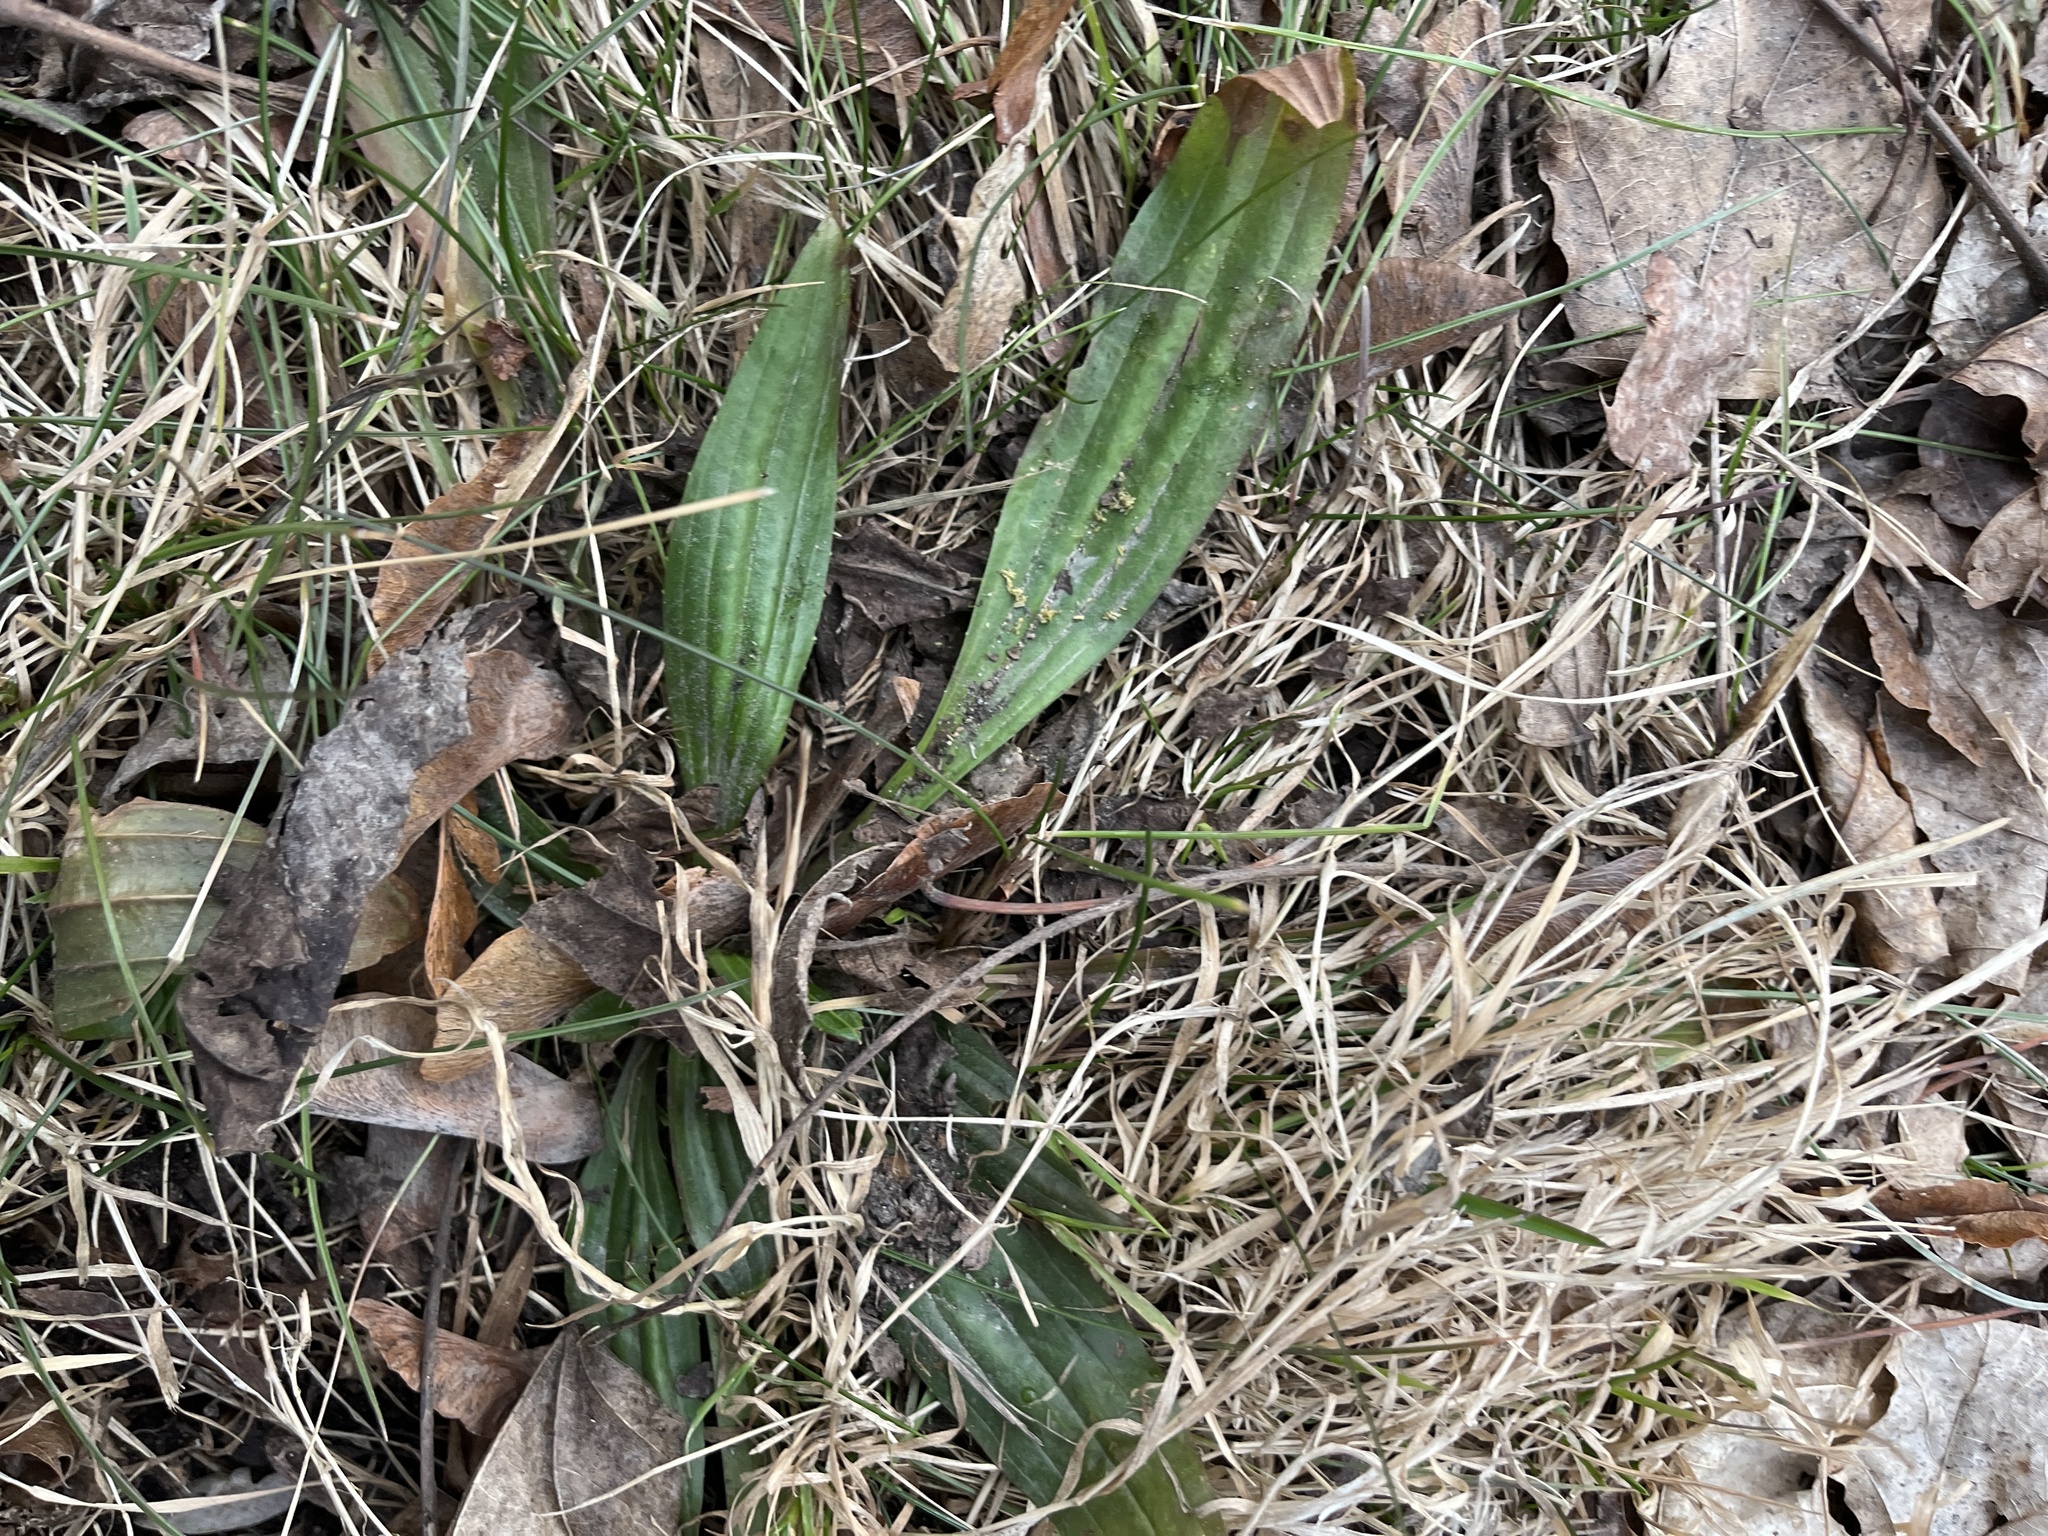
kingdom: Plantae
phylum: Tracheophyta
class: Magnoliopsida
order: Lamiales
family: Plantaginaceae
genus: Plantago
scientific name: Plantago lanceolata
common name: Ribwort plantain
